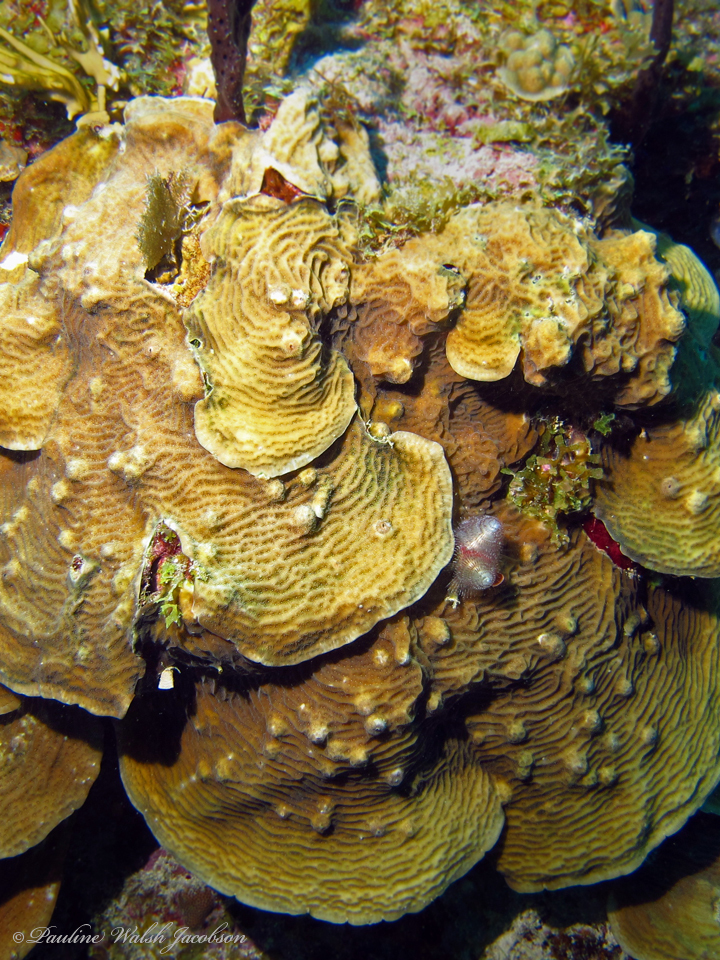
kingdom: Animalia
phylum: Cnidaria
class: Anthozoa
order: Scleractinia
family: Agariciidae
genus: Agaricia
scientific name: Agaricia agaricites
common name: Lettuce coral
